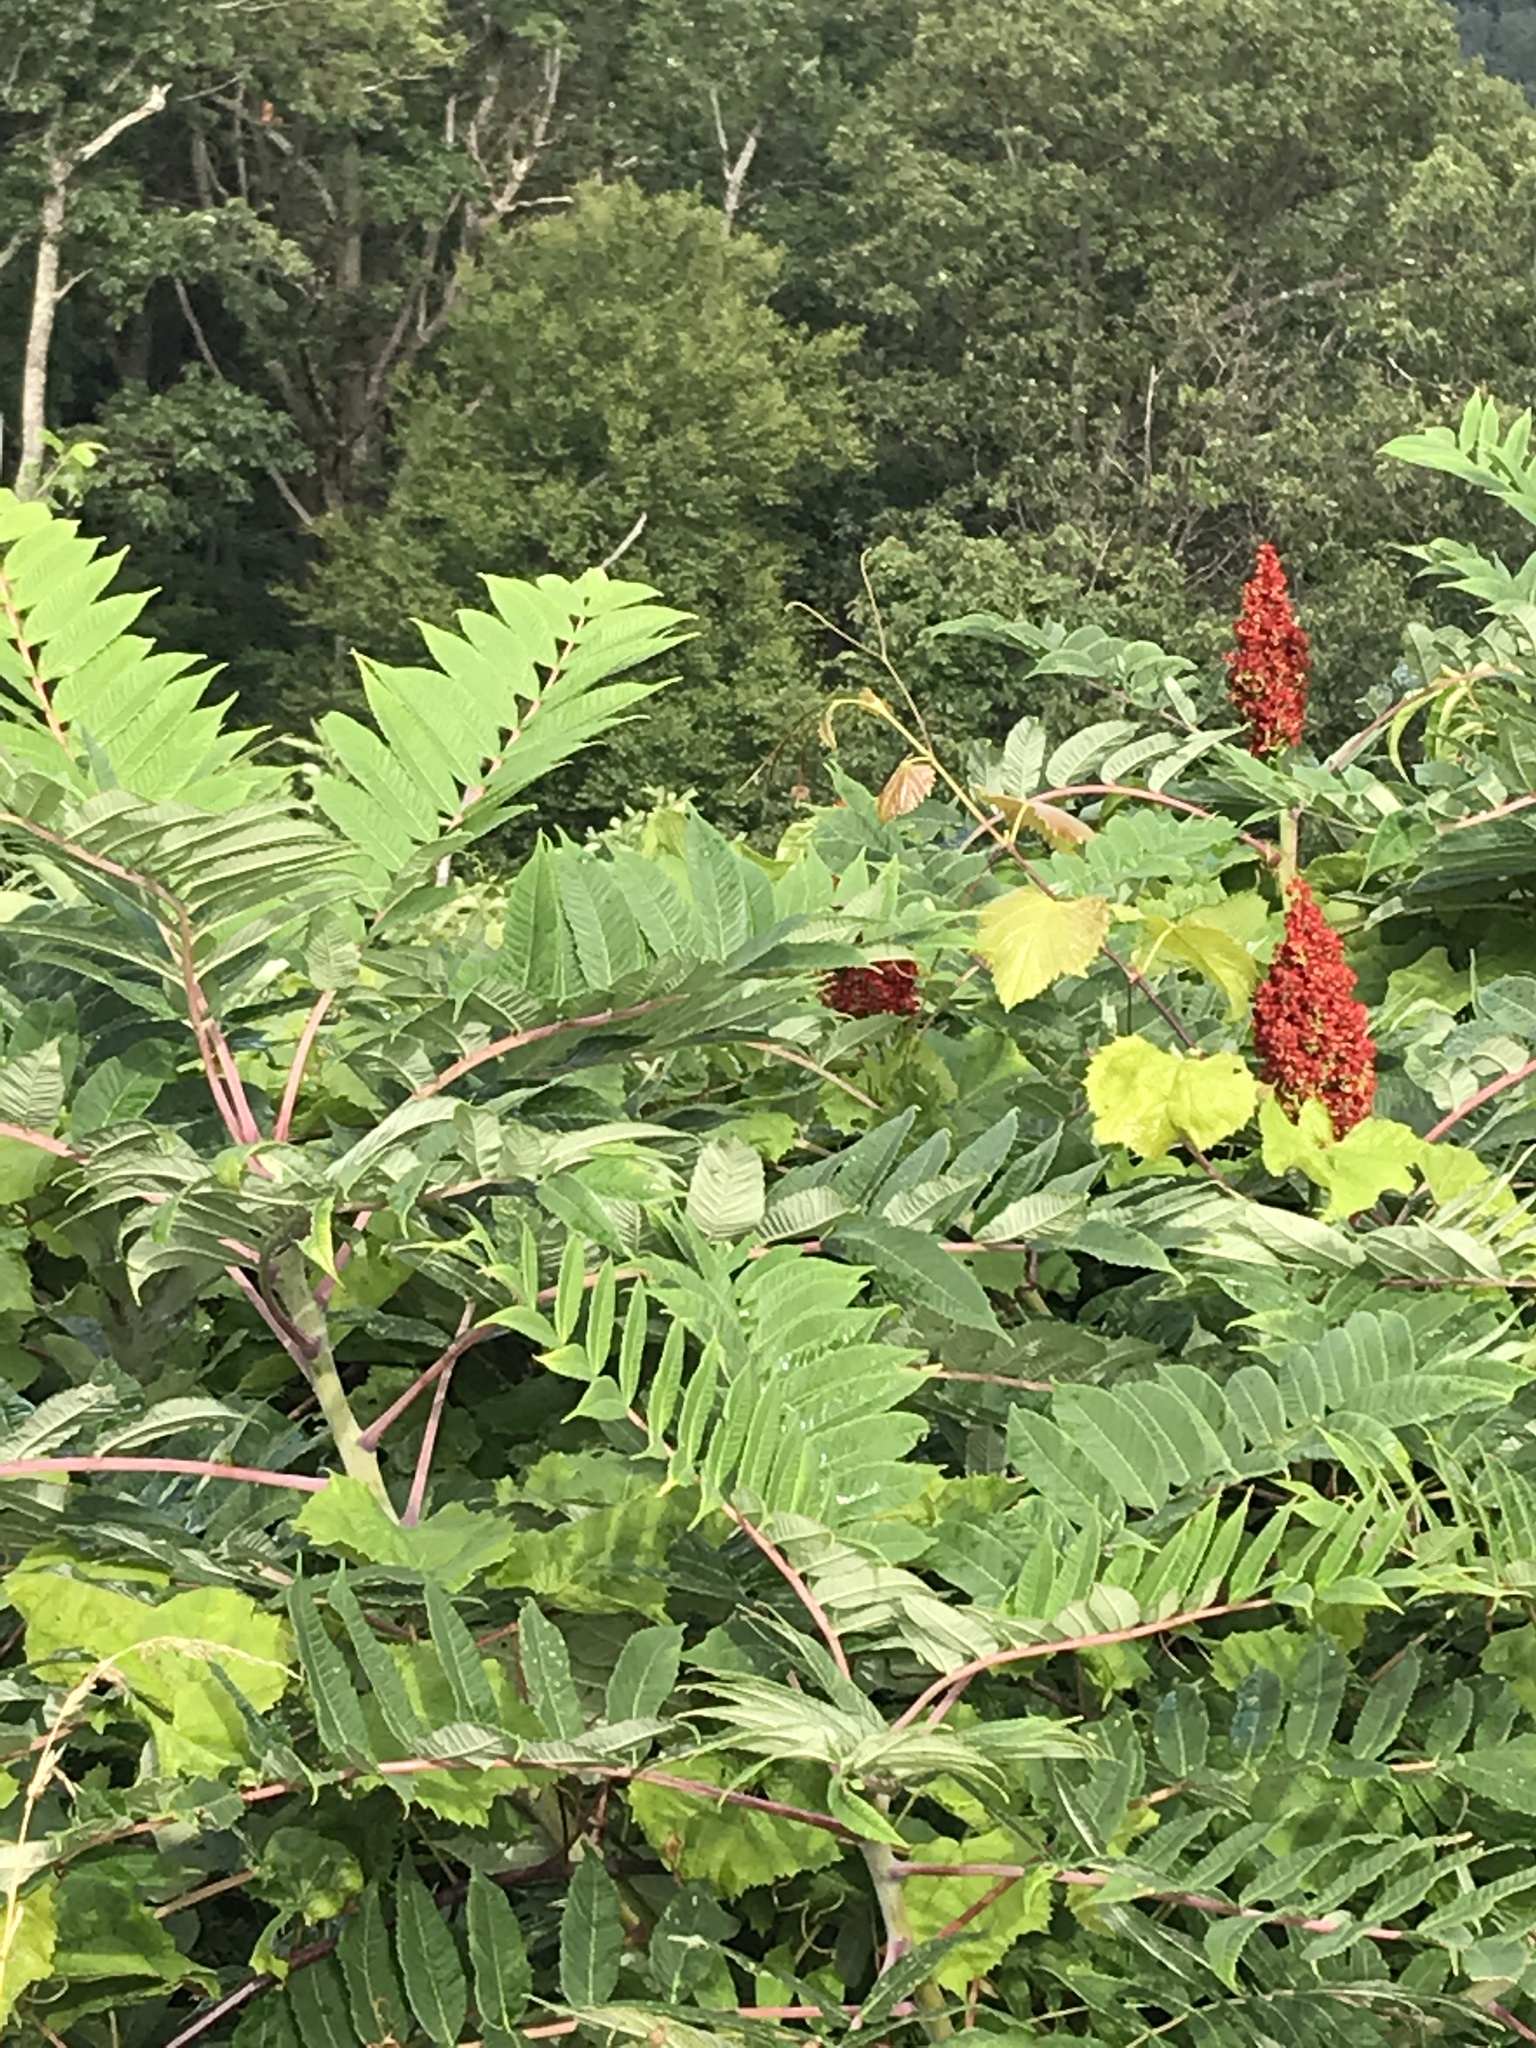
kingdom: Plantae
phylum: Tracheophyta
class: Magnoliopsida
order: Sapindales
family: Anacardiaceae
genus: Rhus
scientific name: Rhus glabra
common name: Scarlet sumac
